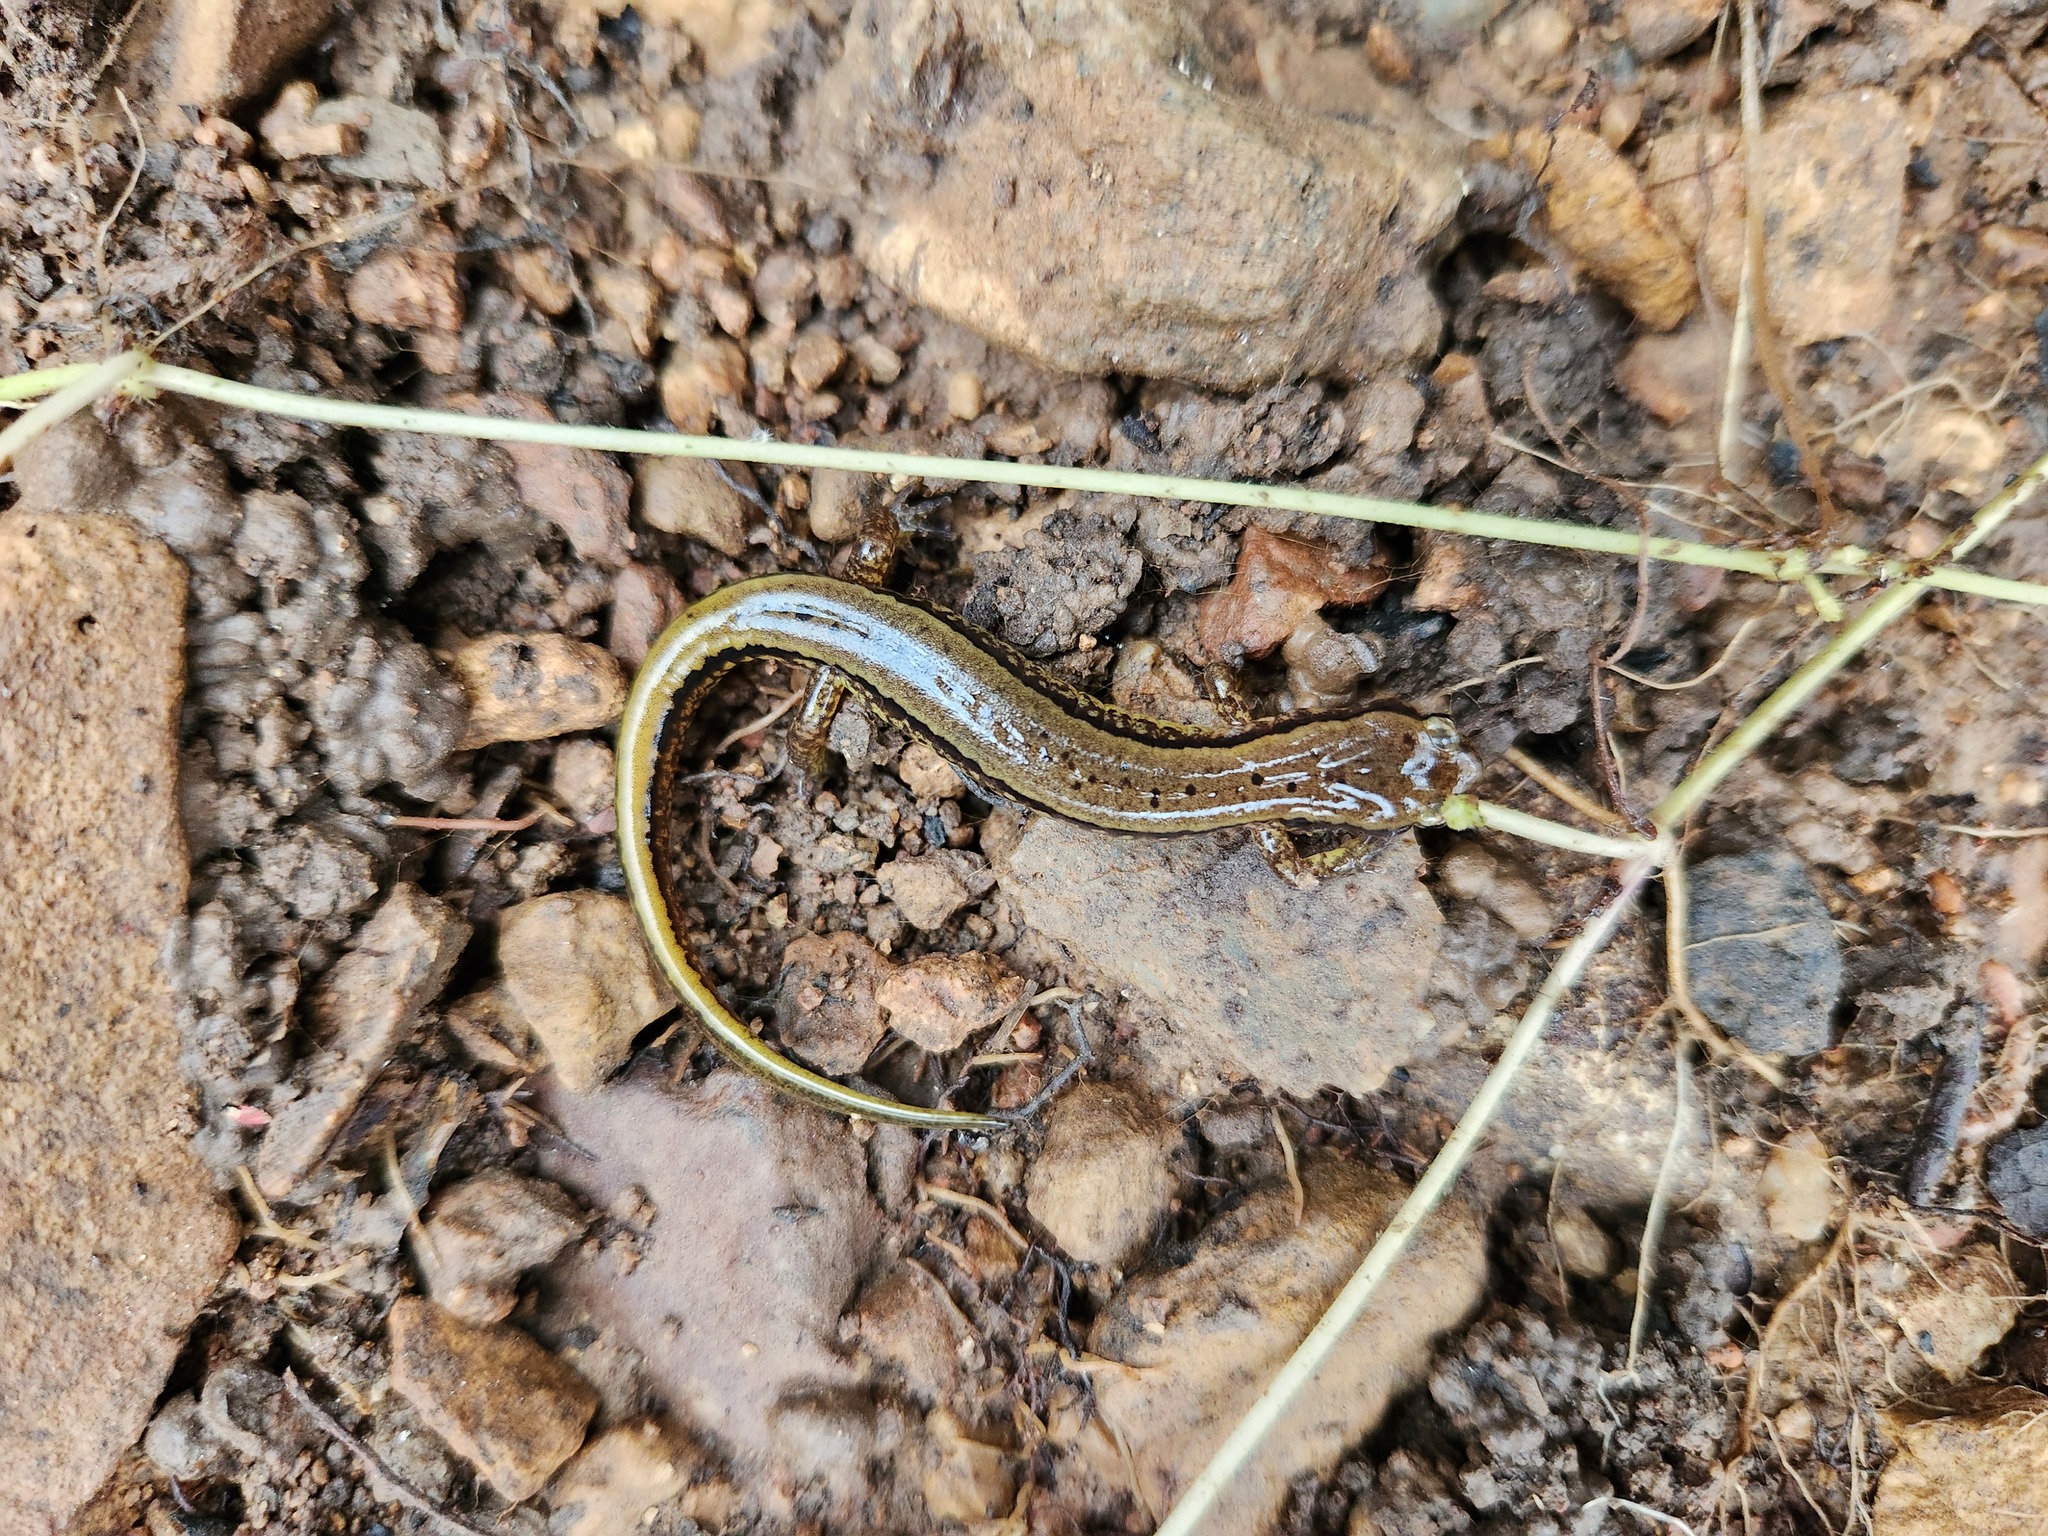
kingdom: Animalia
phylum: Chordata
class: Amphibia
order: Caudata
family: Plethodontidae
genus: Eurycea
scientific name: Eurycea cirrigera
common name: Southern two-lined salamander
